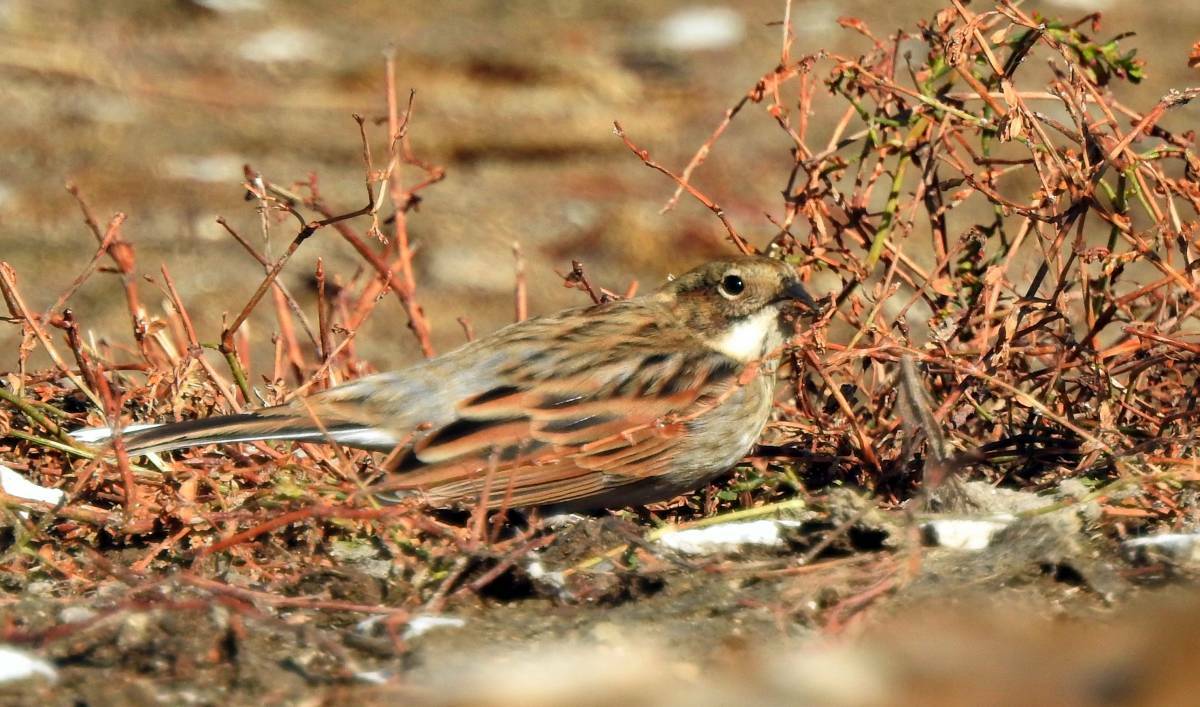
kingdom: Animalia
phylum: Chordata
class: Aves
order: Passeriformes
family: Emberizidae
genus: Emberiza
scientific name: Emberiza schoeniclus
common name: Reed bunting
